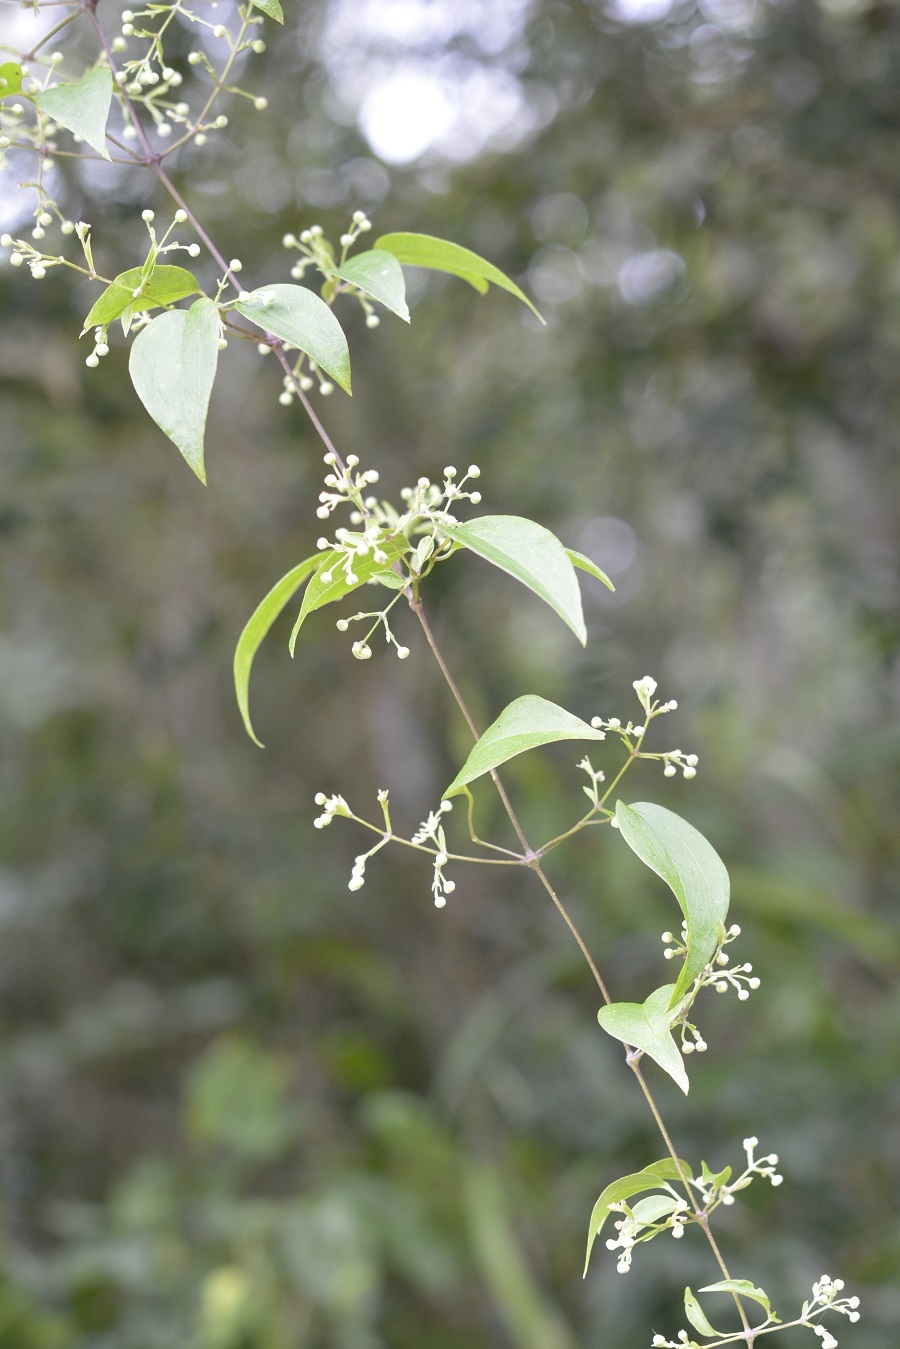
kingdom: Plantae
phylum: Tracheophyta
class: Magnoliopsida
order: Ranunculales
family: Ranunculaceae
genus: Clematis
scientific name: Clematis dioica
